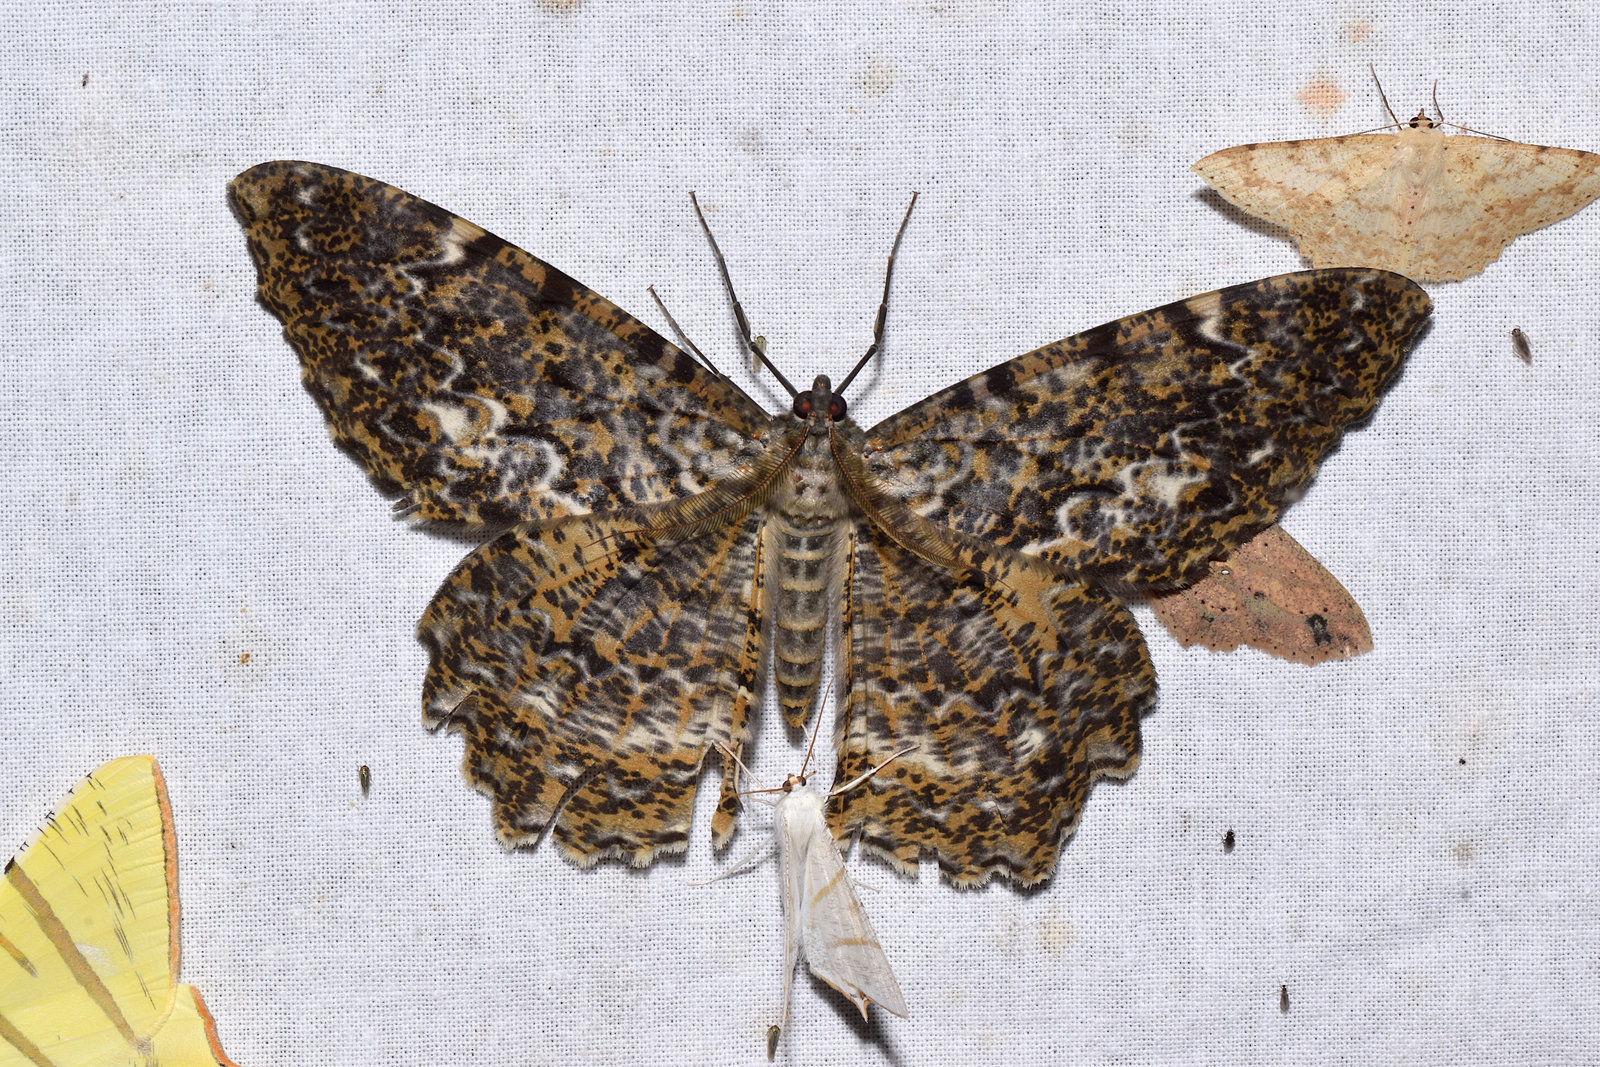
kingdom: Animalia
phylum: Arthropoda
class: Insecta
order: Lepidoptera
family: Geometridae
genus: Amblychia
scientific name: Amblychia nimia
